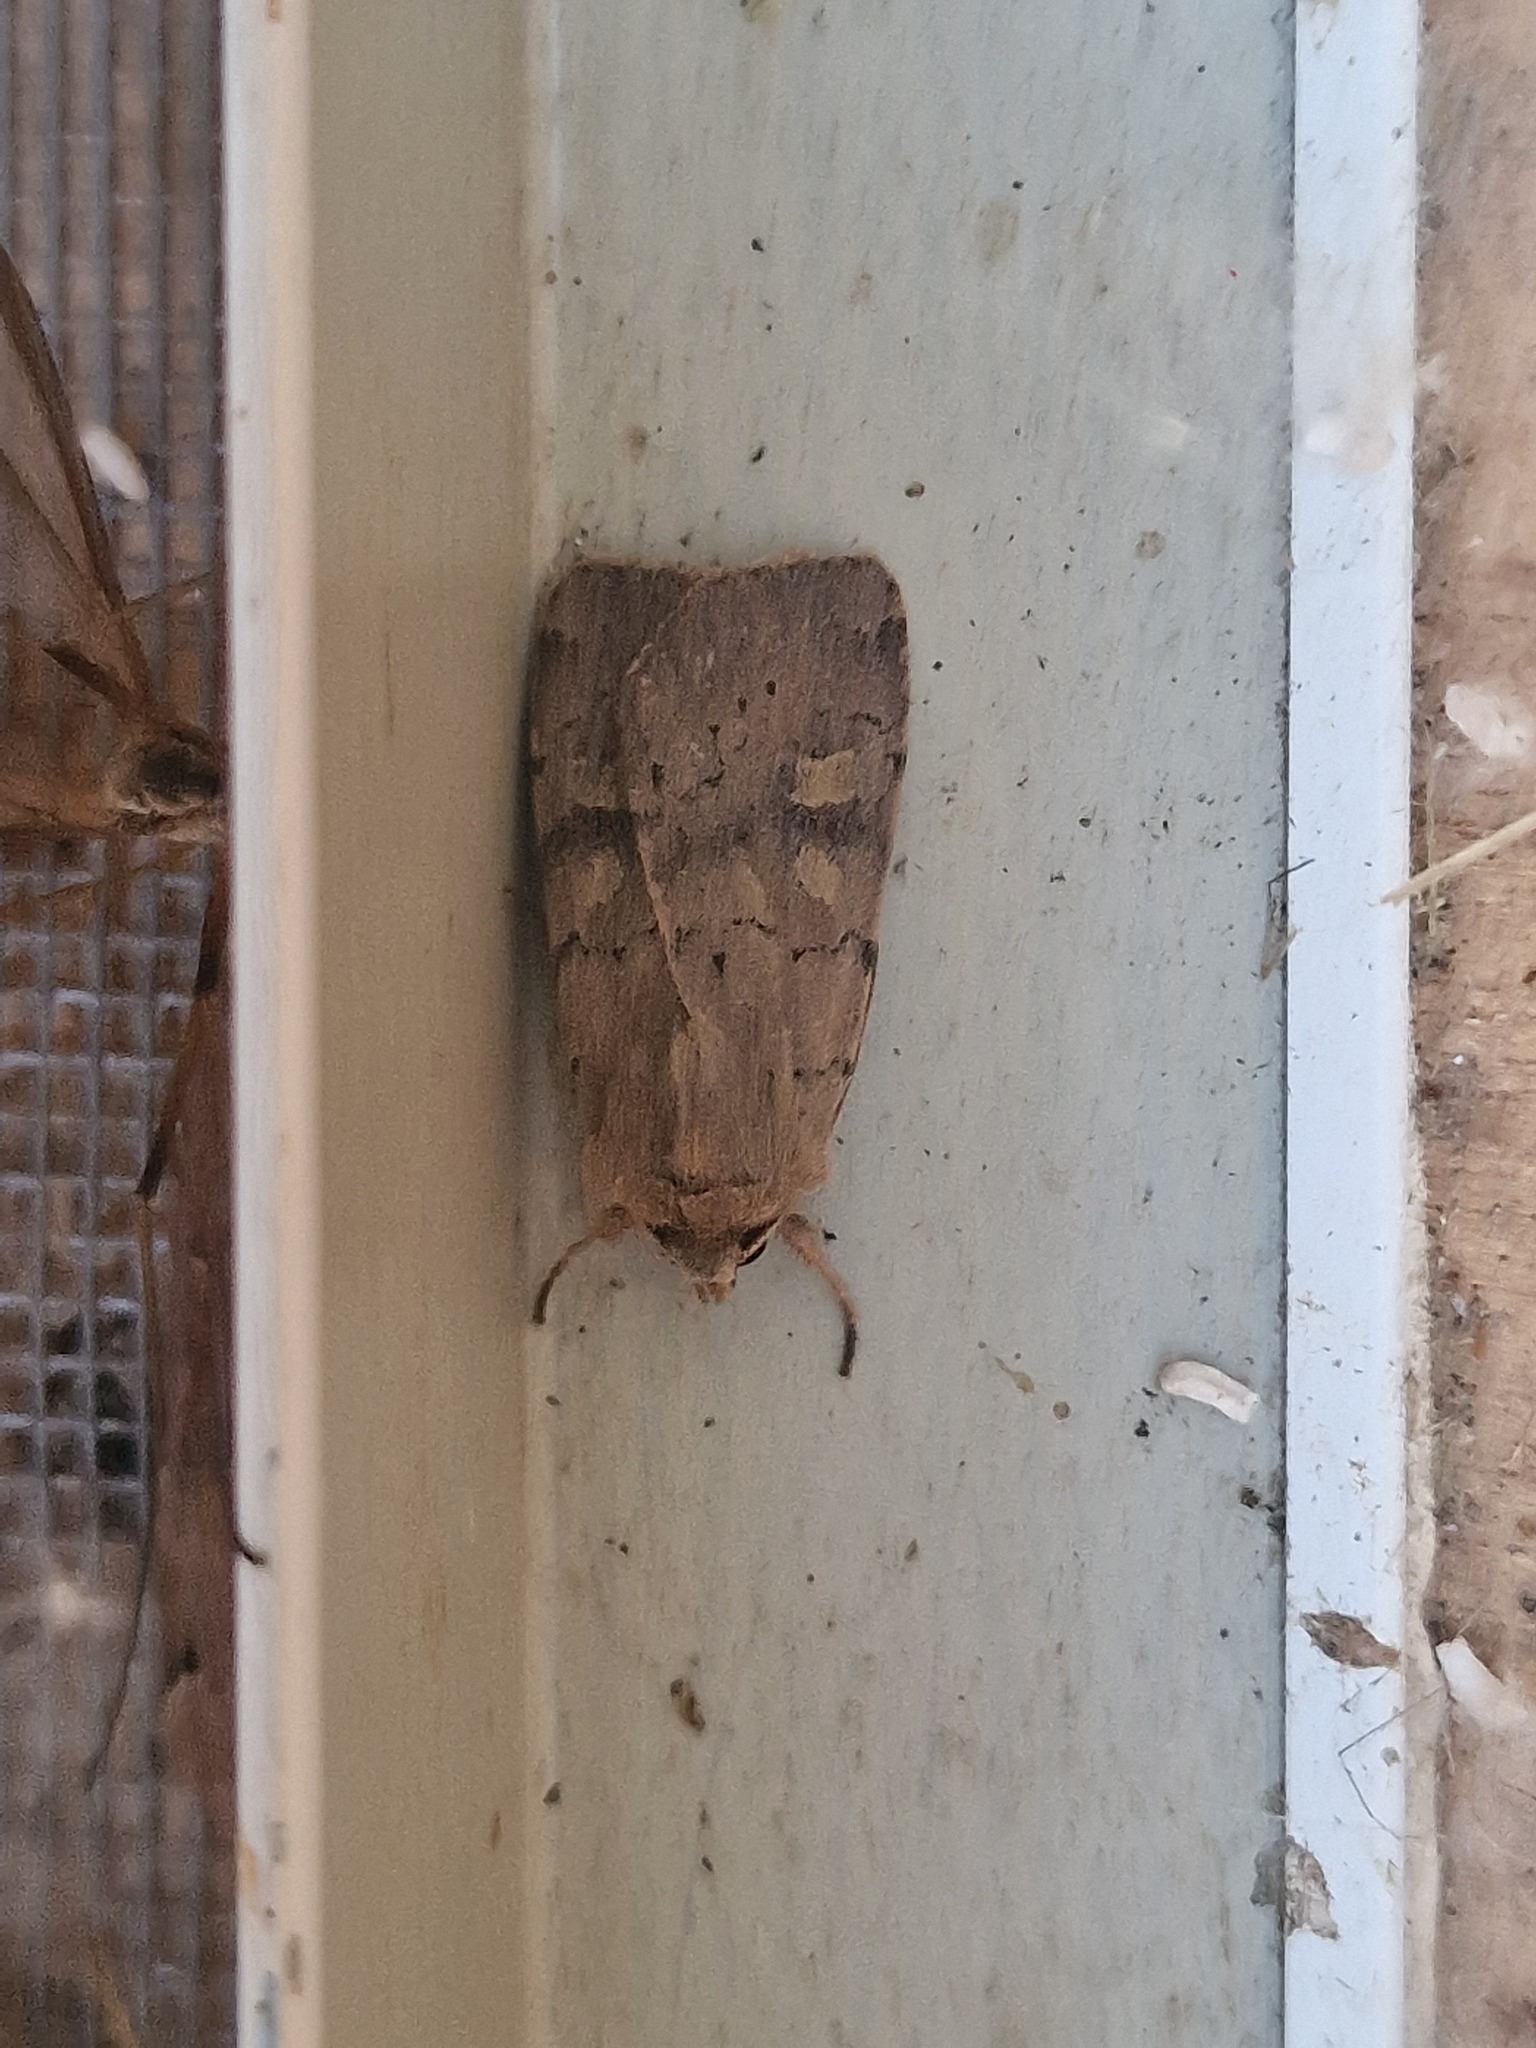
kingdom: Animalia
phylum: Arthropoda
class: Insecta
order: Lepidoptera
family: Noctuidae
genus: Xestia
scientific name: Xestia xanthographa
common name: Square-spot rustic
